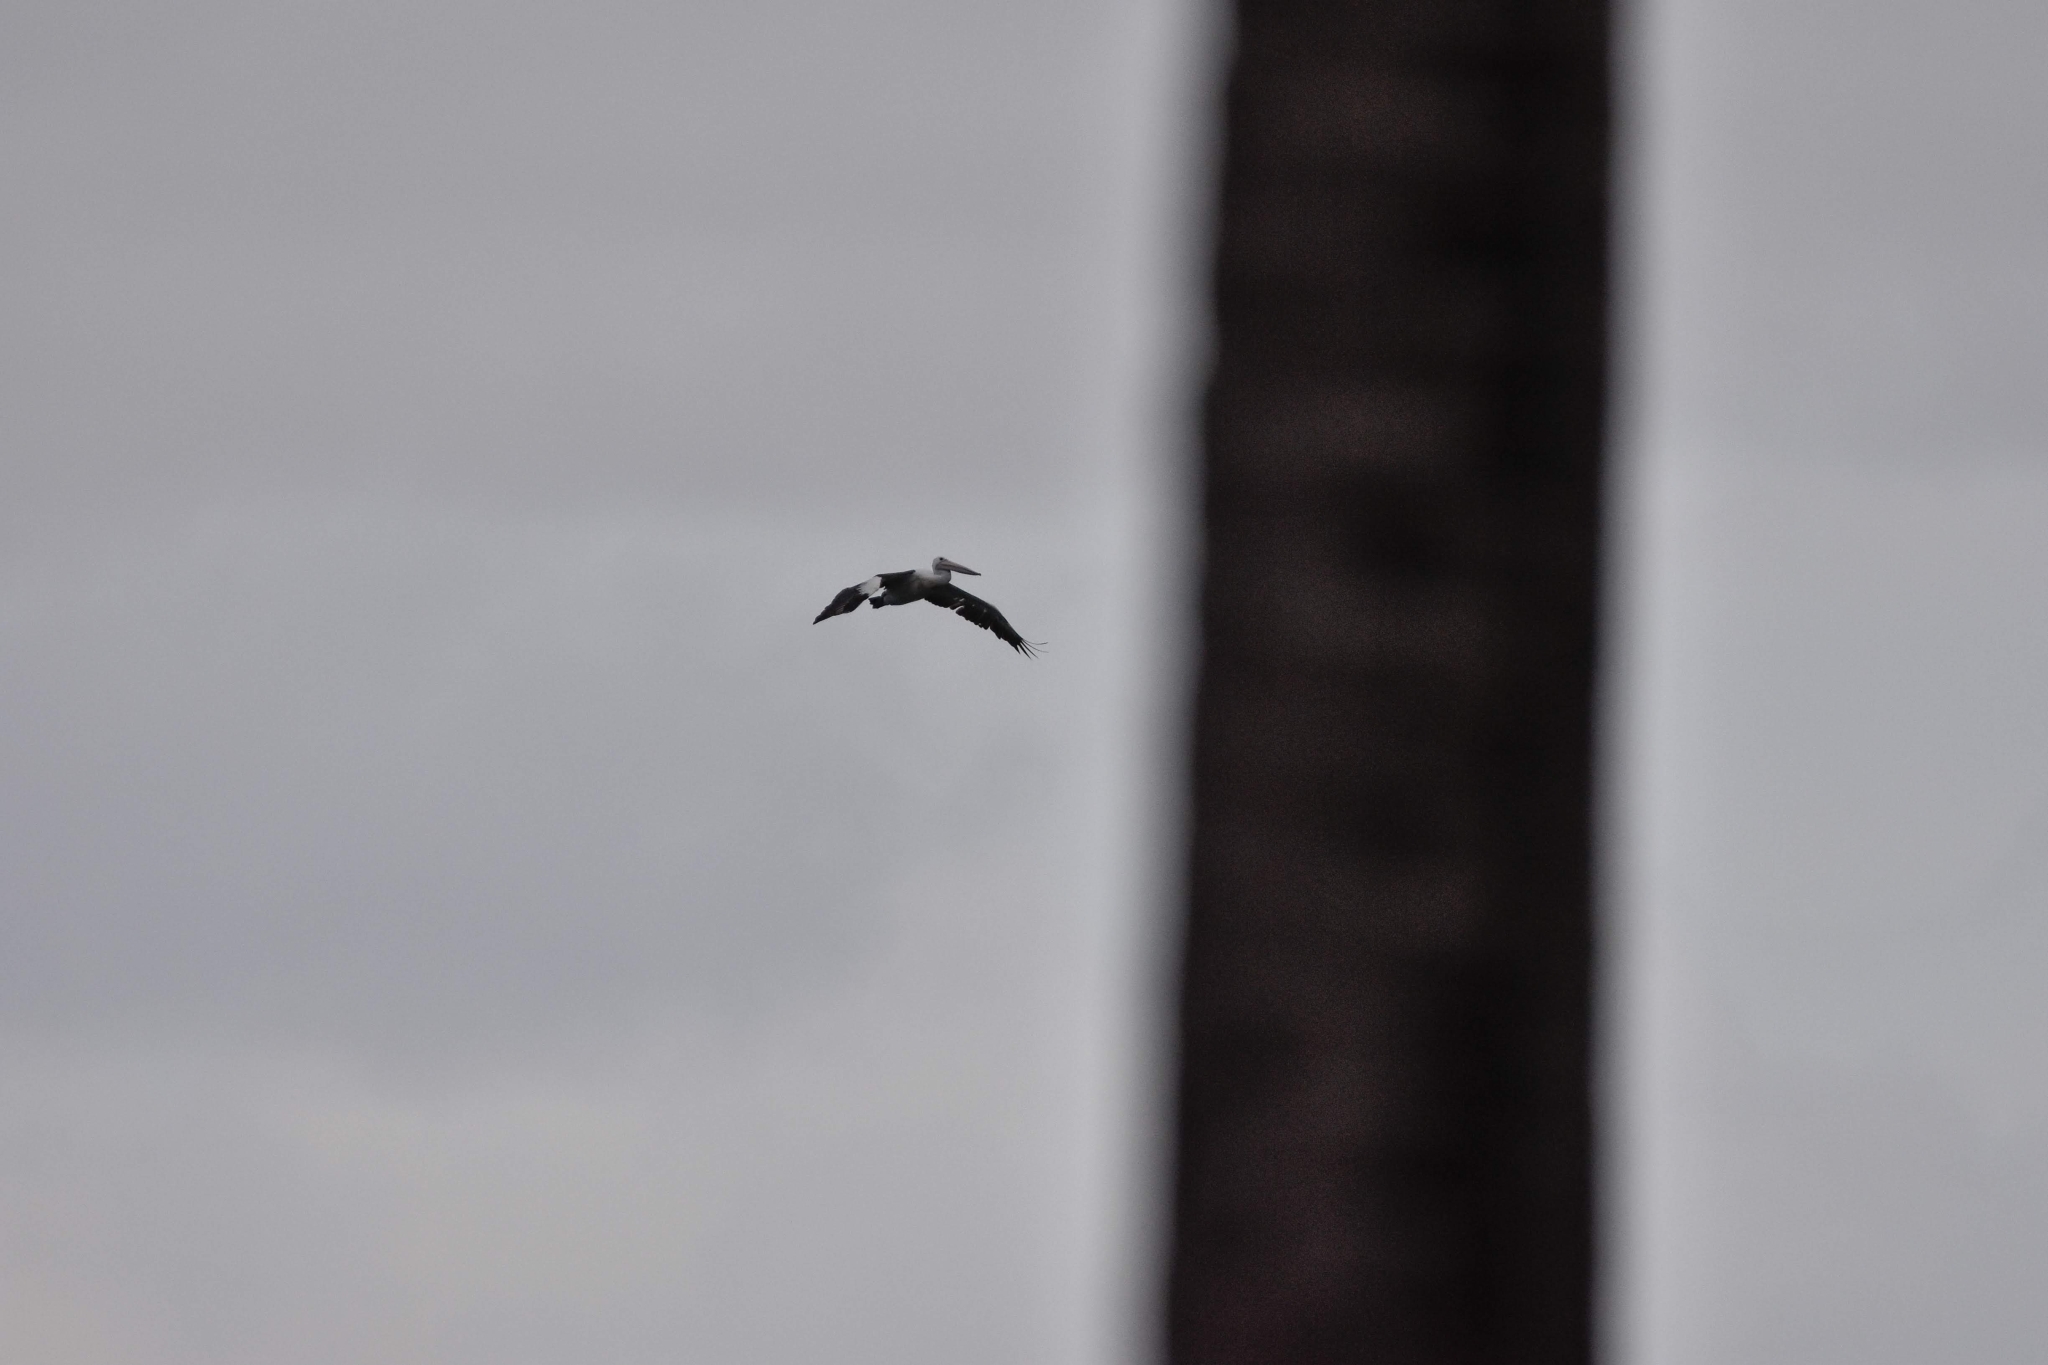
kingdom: Animalia
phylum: Chordata
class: Aves
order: Pelecaniformes
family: Pelecanidae
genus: Pelecanus
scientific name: Pelecanus conspicillatus
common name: Australian pelican
